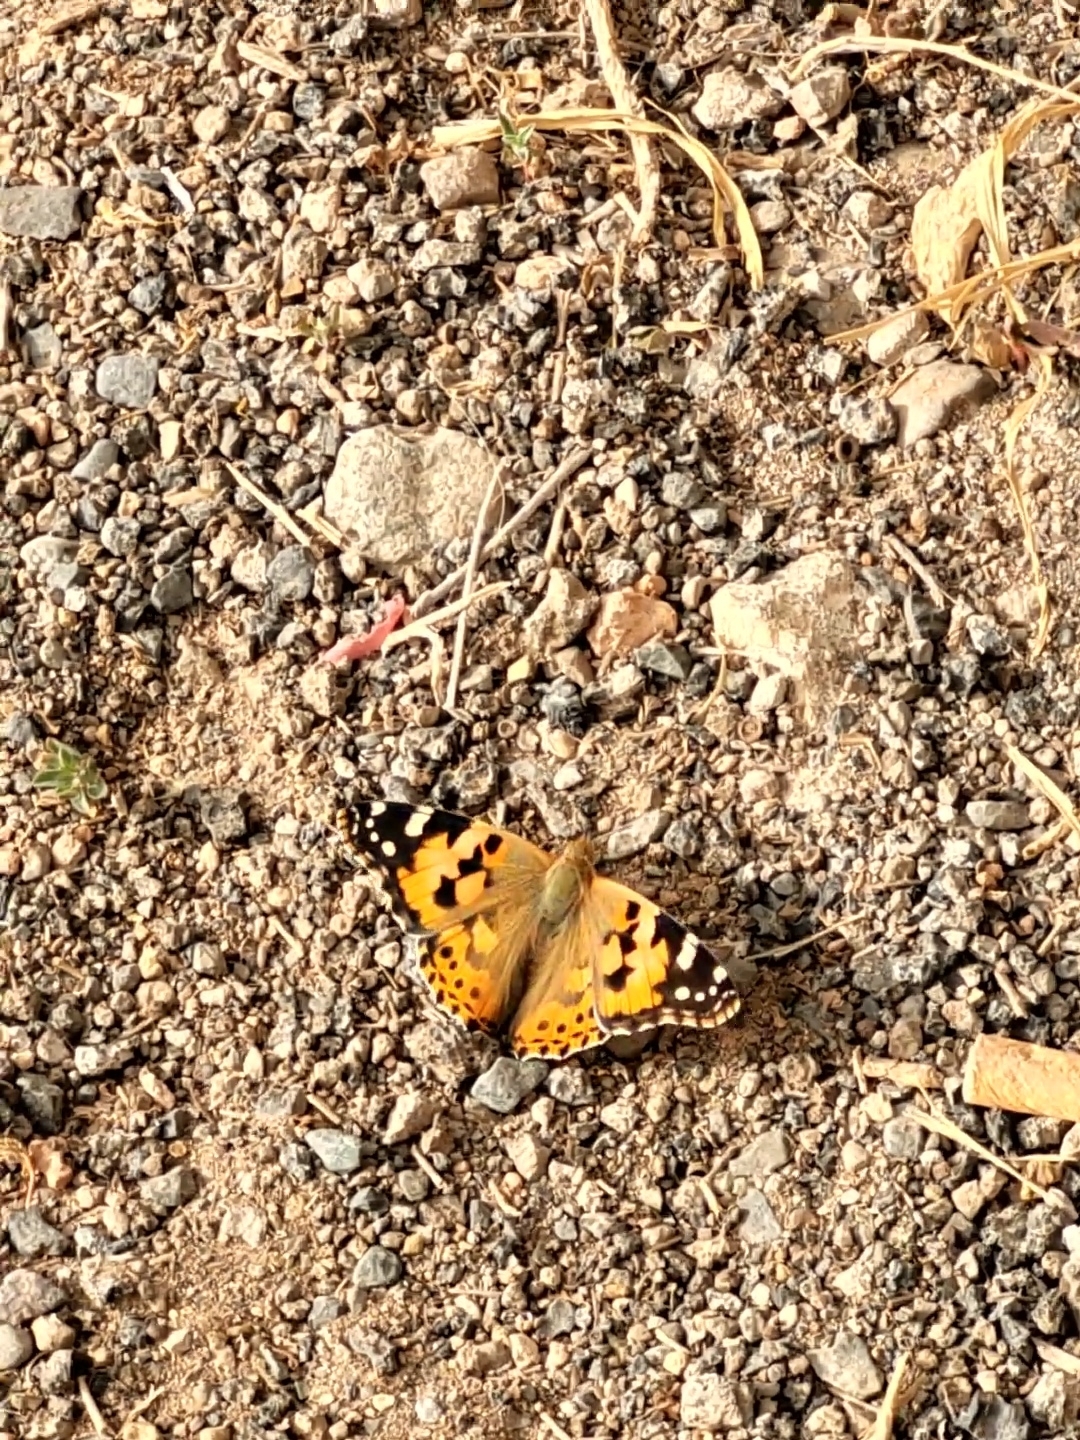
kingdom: Animalia
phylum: Arthropoda
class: Insecta
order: Lepidoptera
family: Nymphalidae
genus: Vanessa
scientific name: Vanessa cardui
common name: Painted lady
